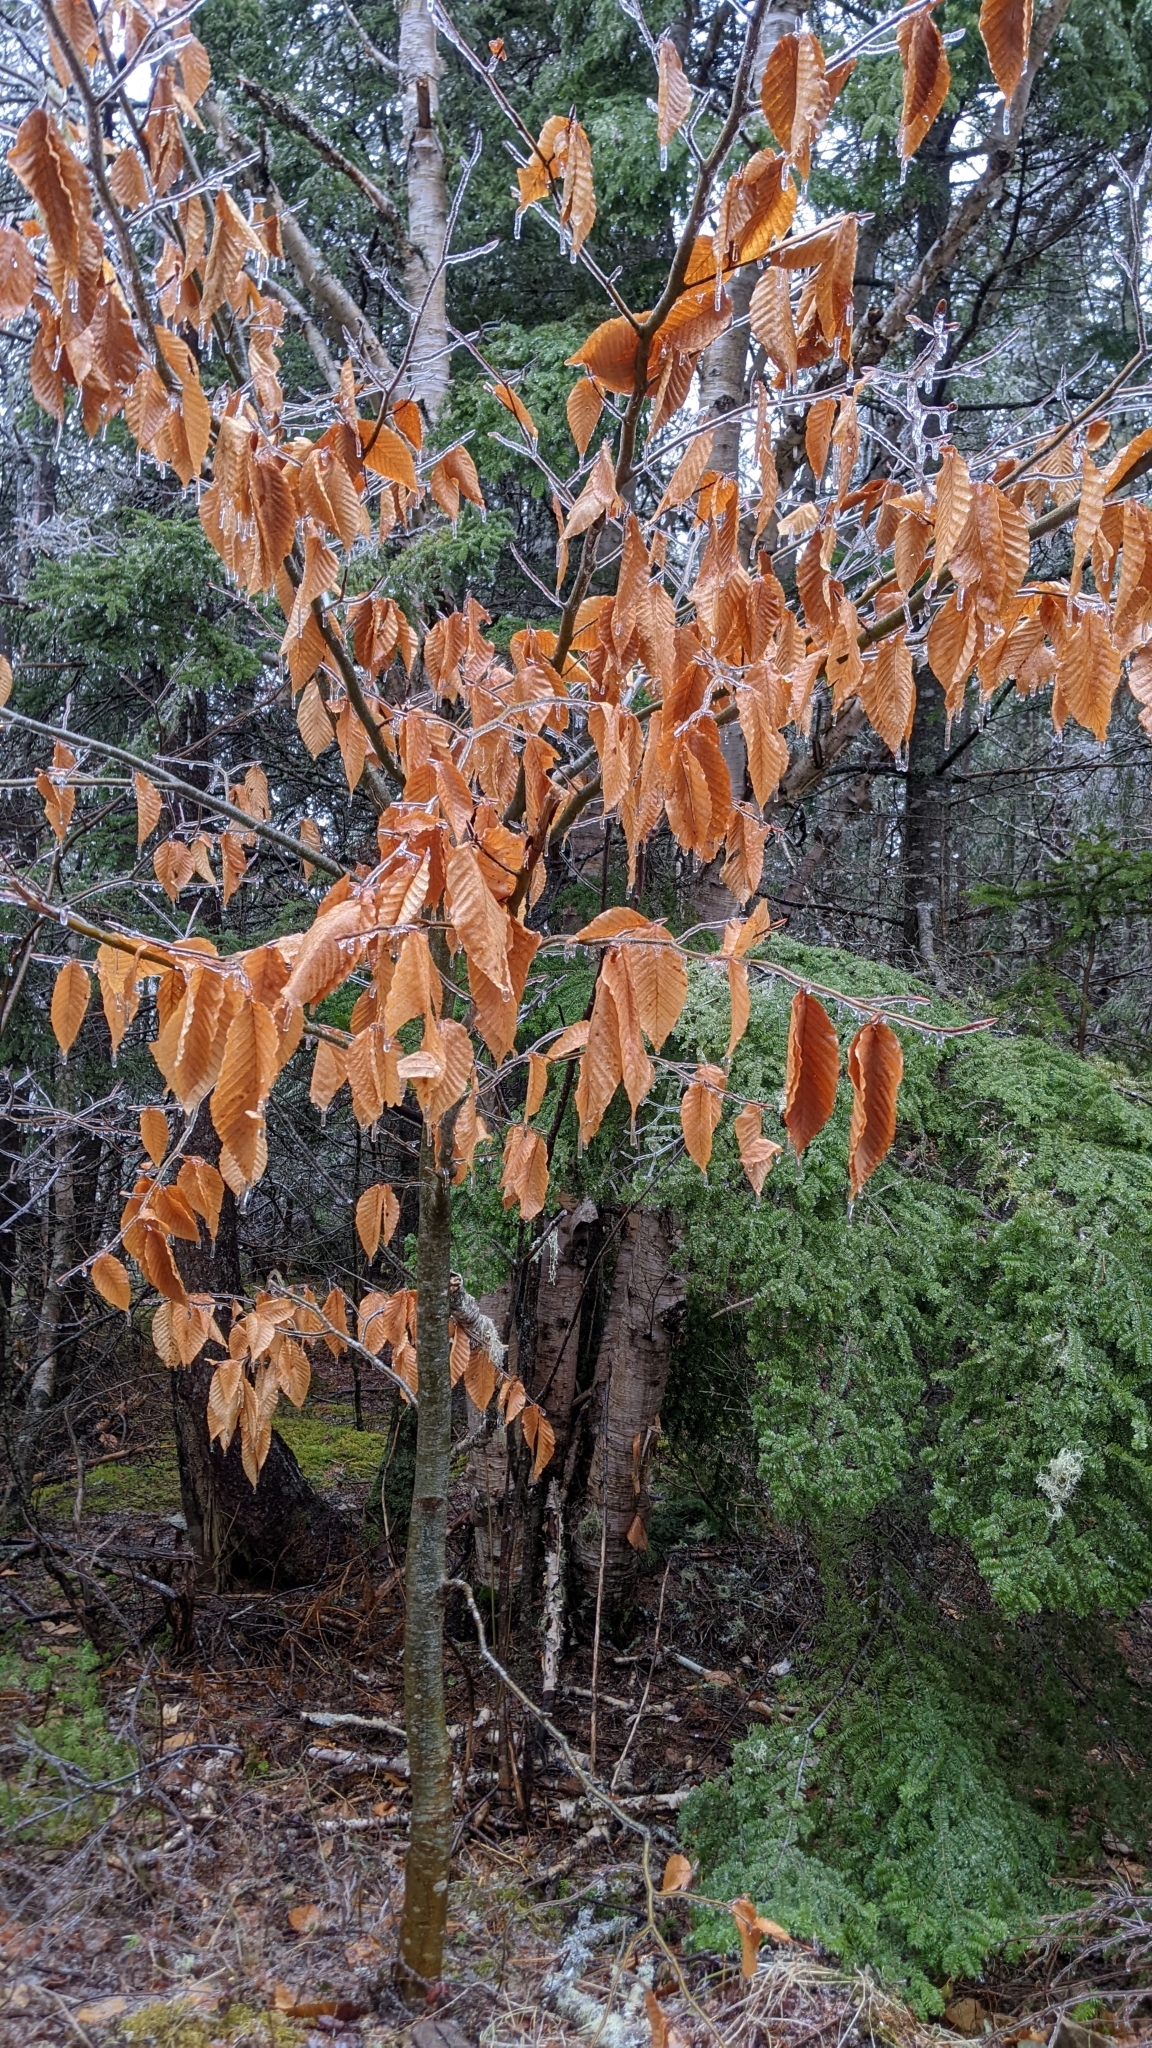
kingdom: Plantae
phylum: Tracheophyta
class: Magnoliopsida
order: Fagales
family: Fagaceae
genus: Fagus
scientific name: Fagus grandifolia
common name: American beech
